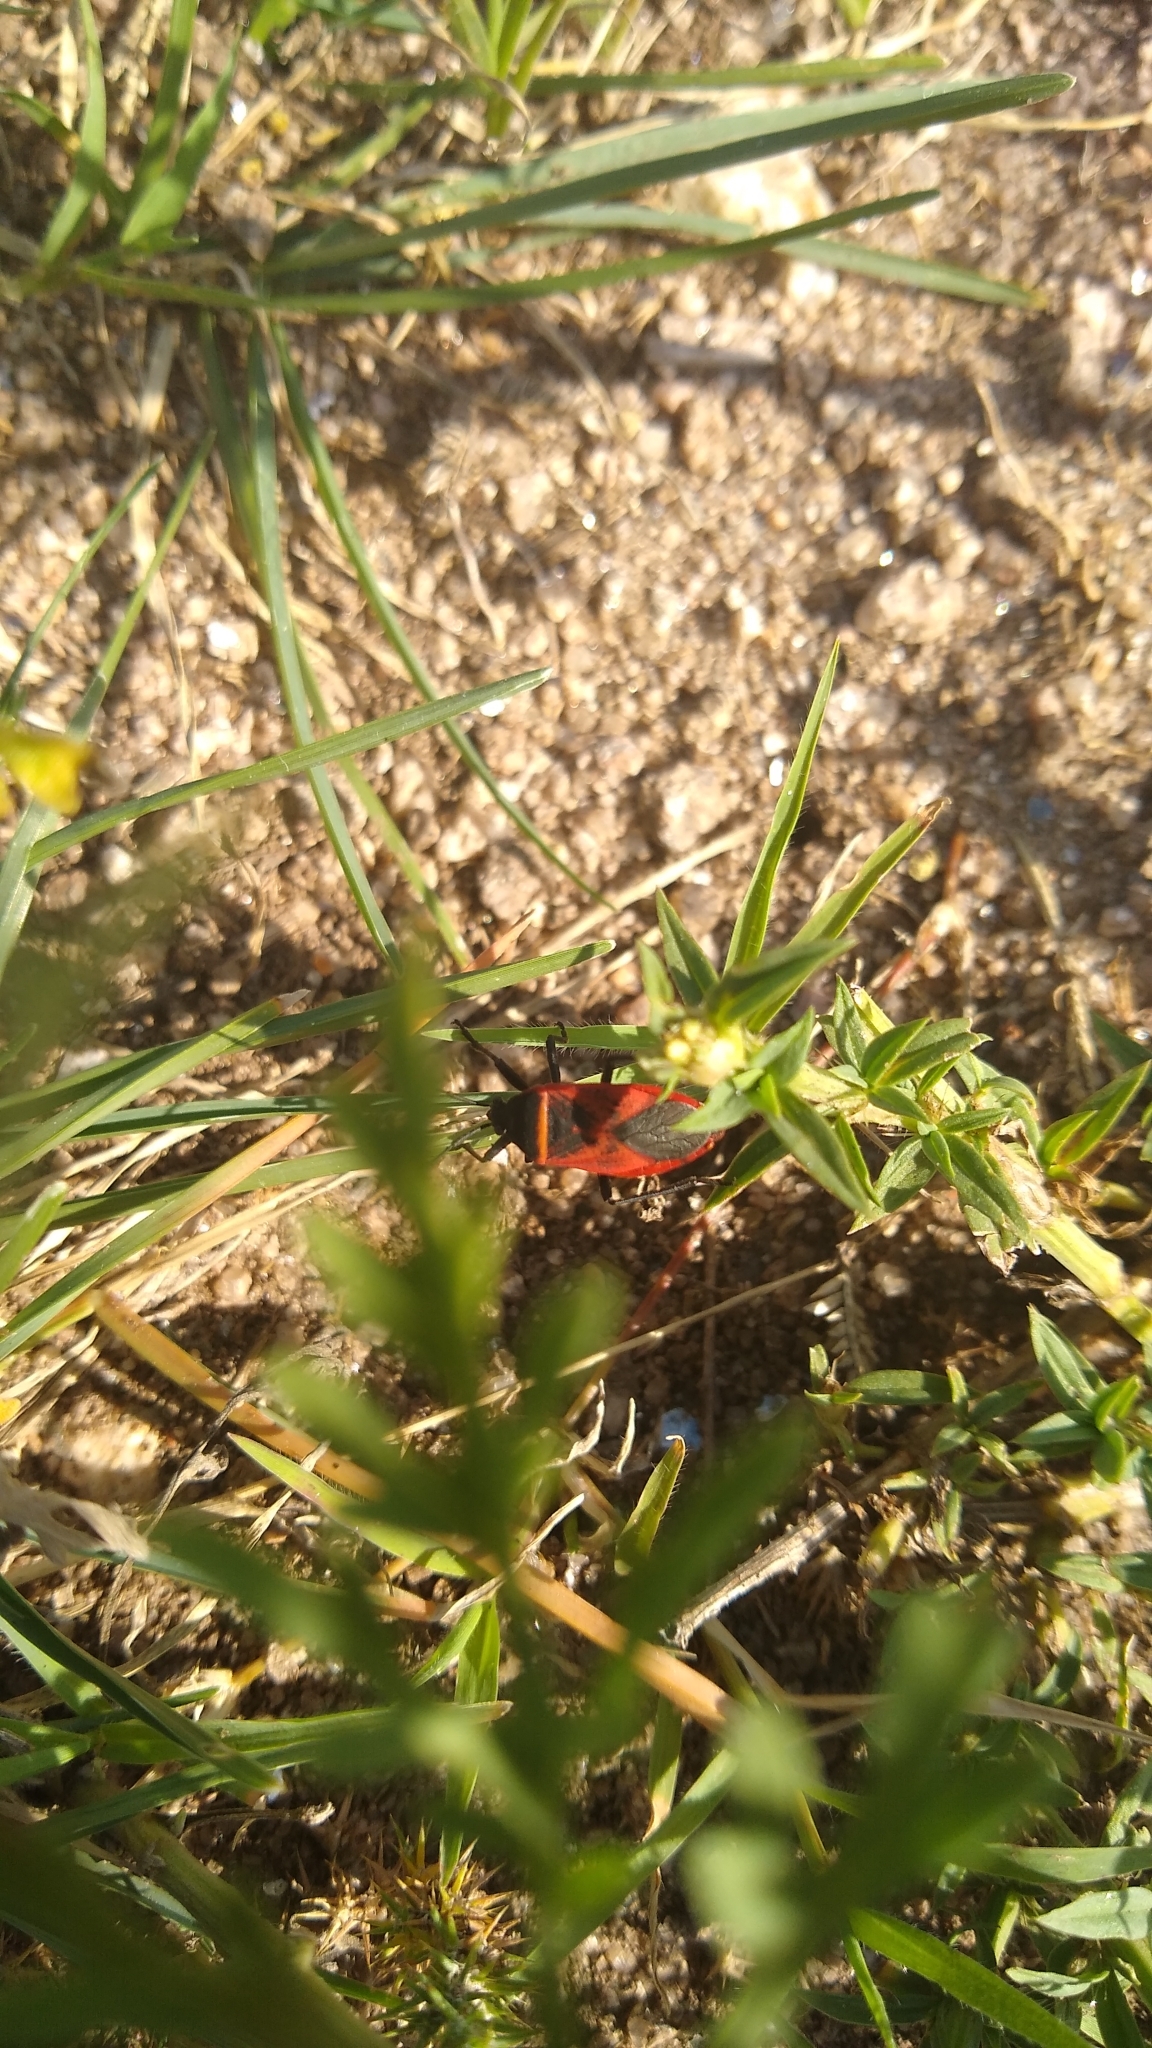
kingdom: Animalia
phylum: Arthropoda
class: Insecta
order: Hemiptera
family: Largidae
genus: Largus
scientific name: Largus rufipennis
